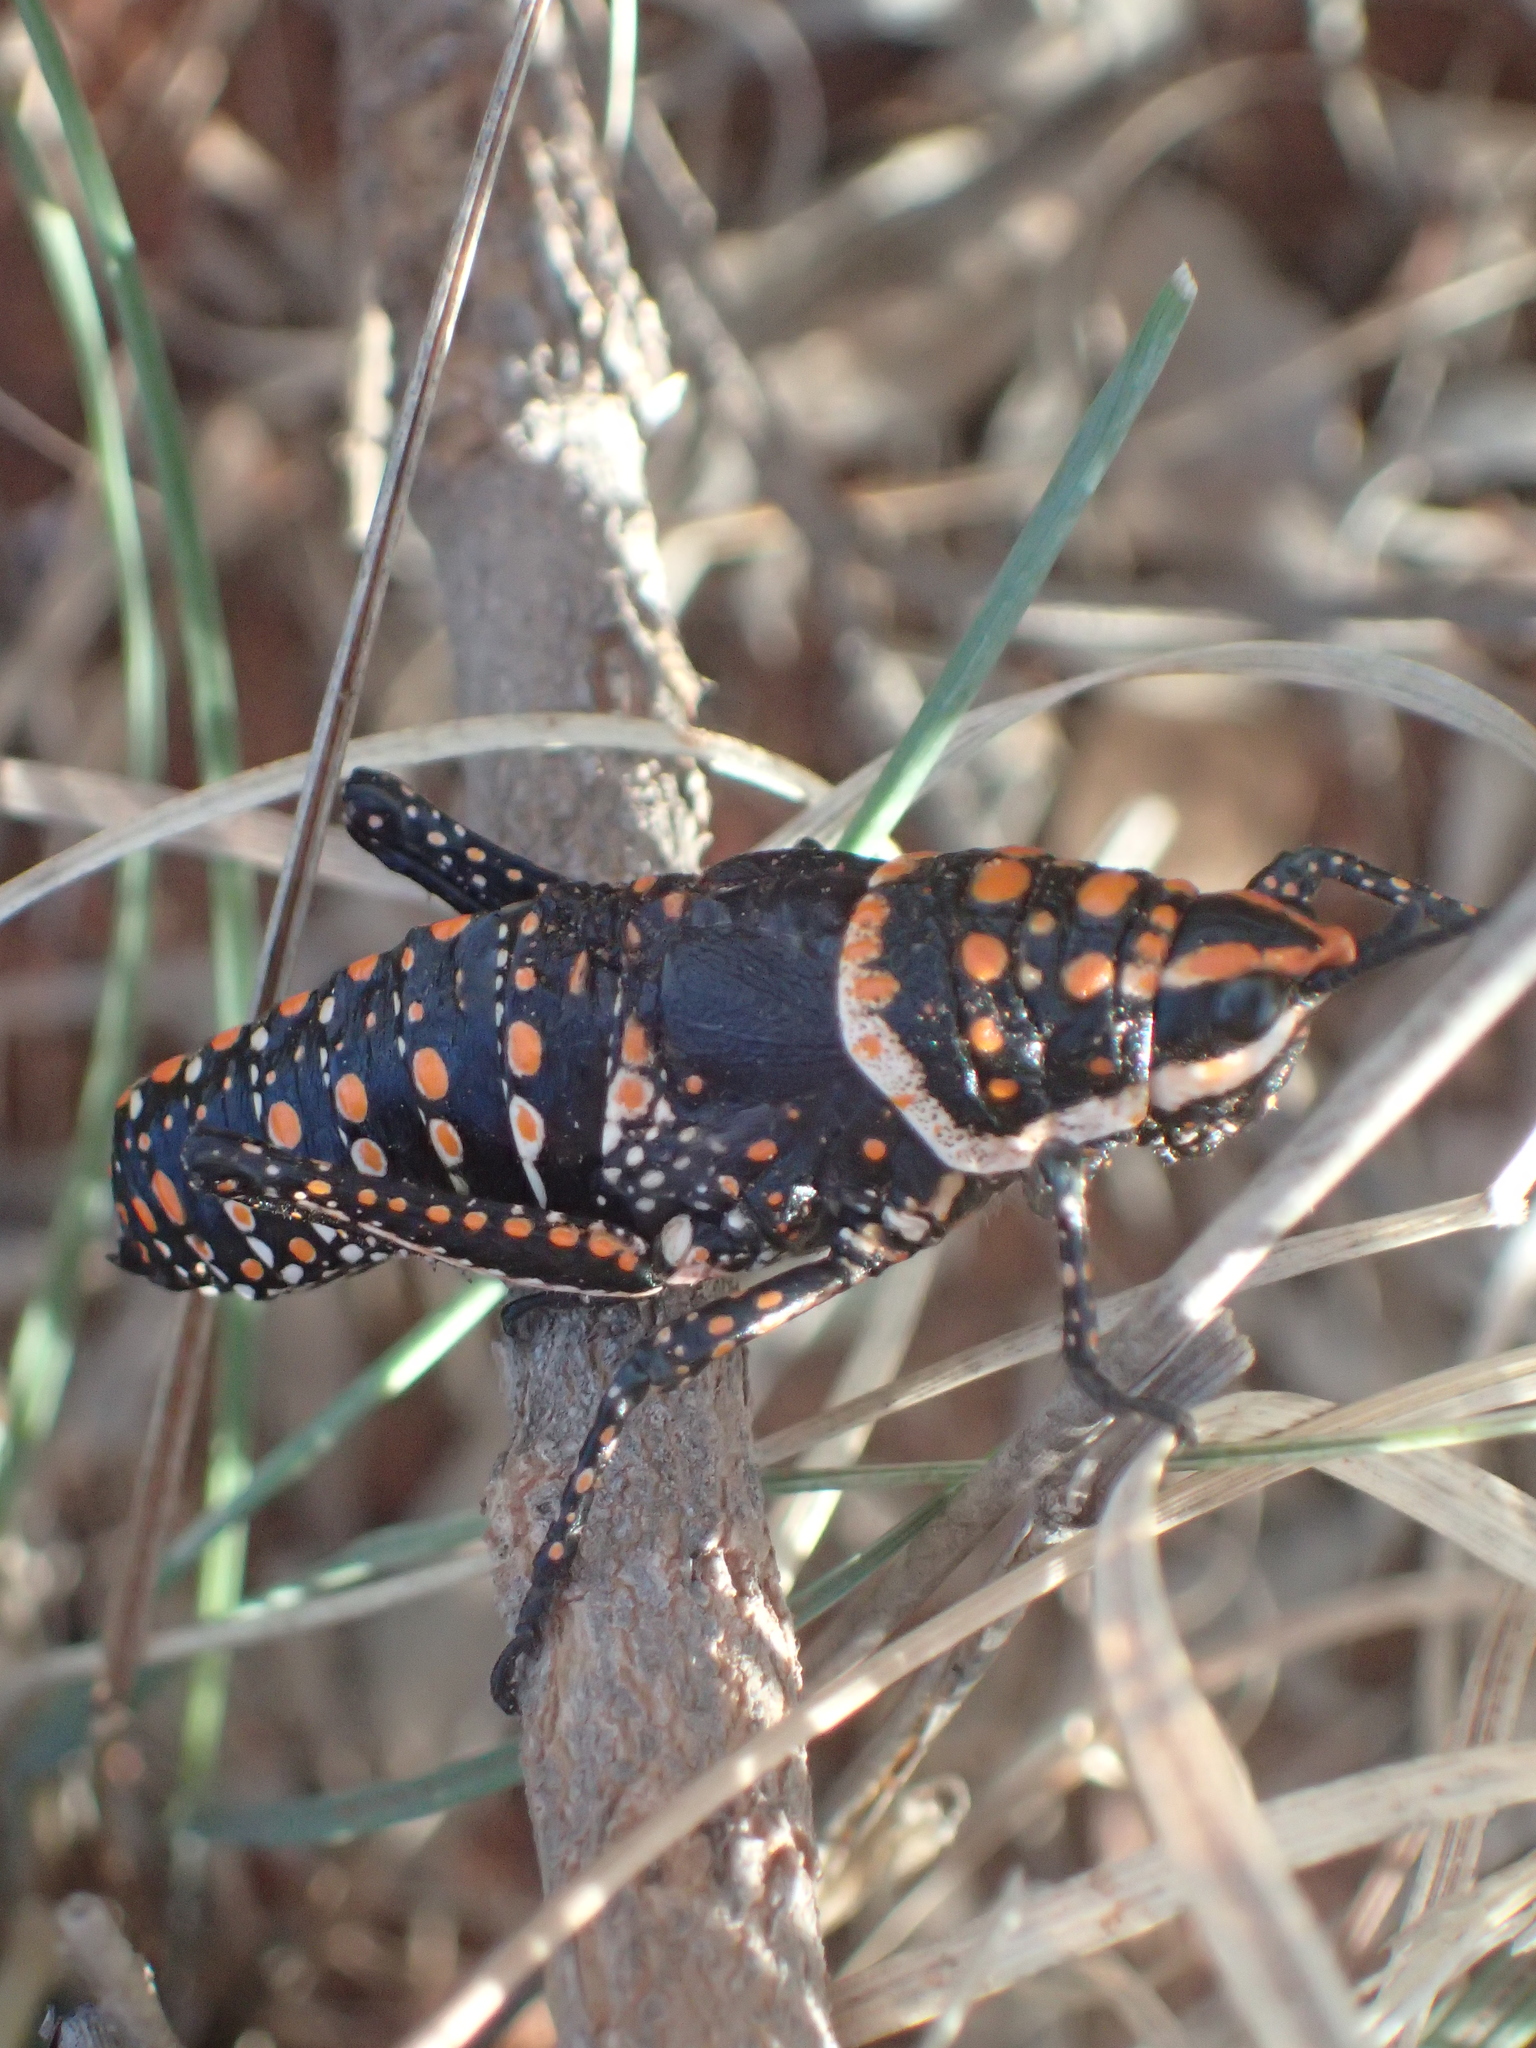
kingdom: Animalia
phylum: Arthropoda
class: Insecta
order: Orthoptera
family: Pyrgomorphidae
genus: Greyacris
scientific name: Greyacris picta
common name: Painted pyromorph
